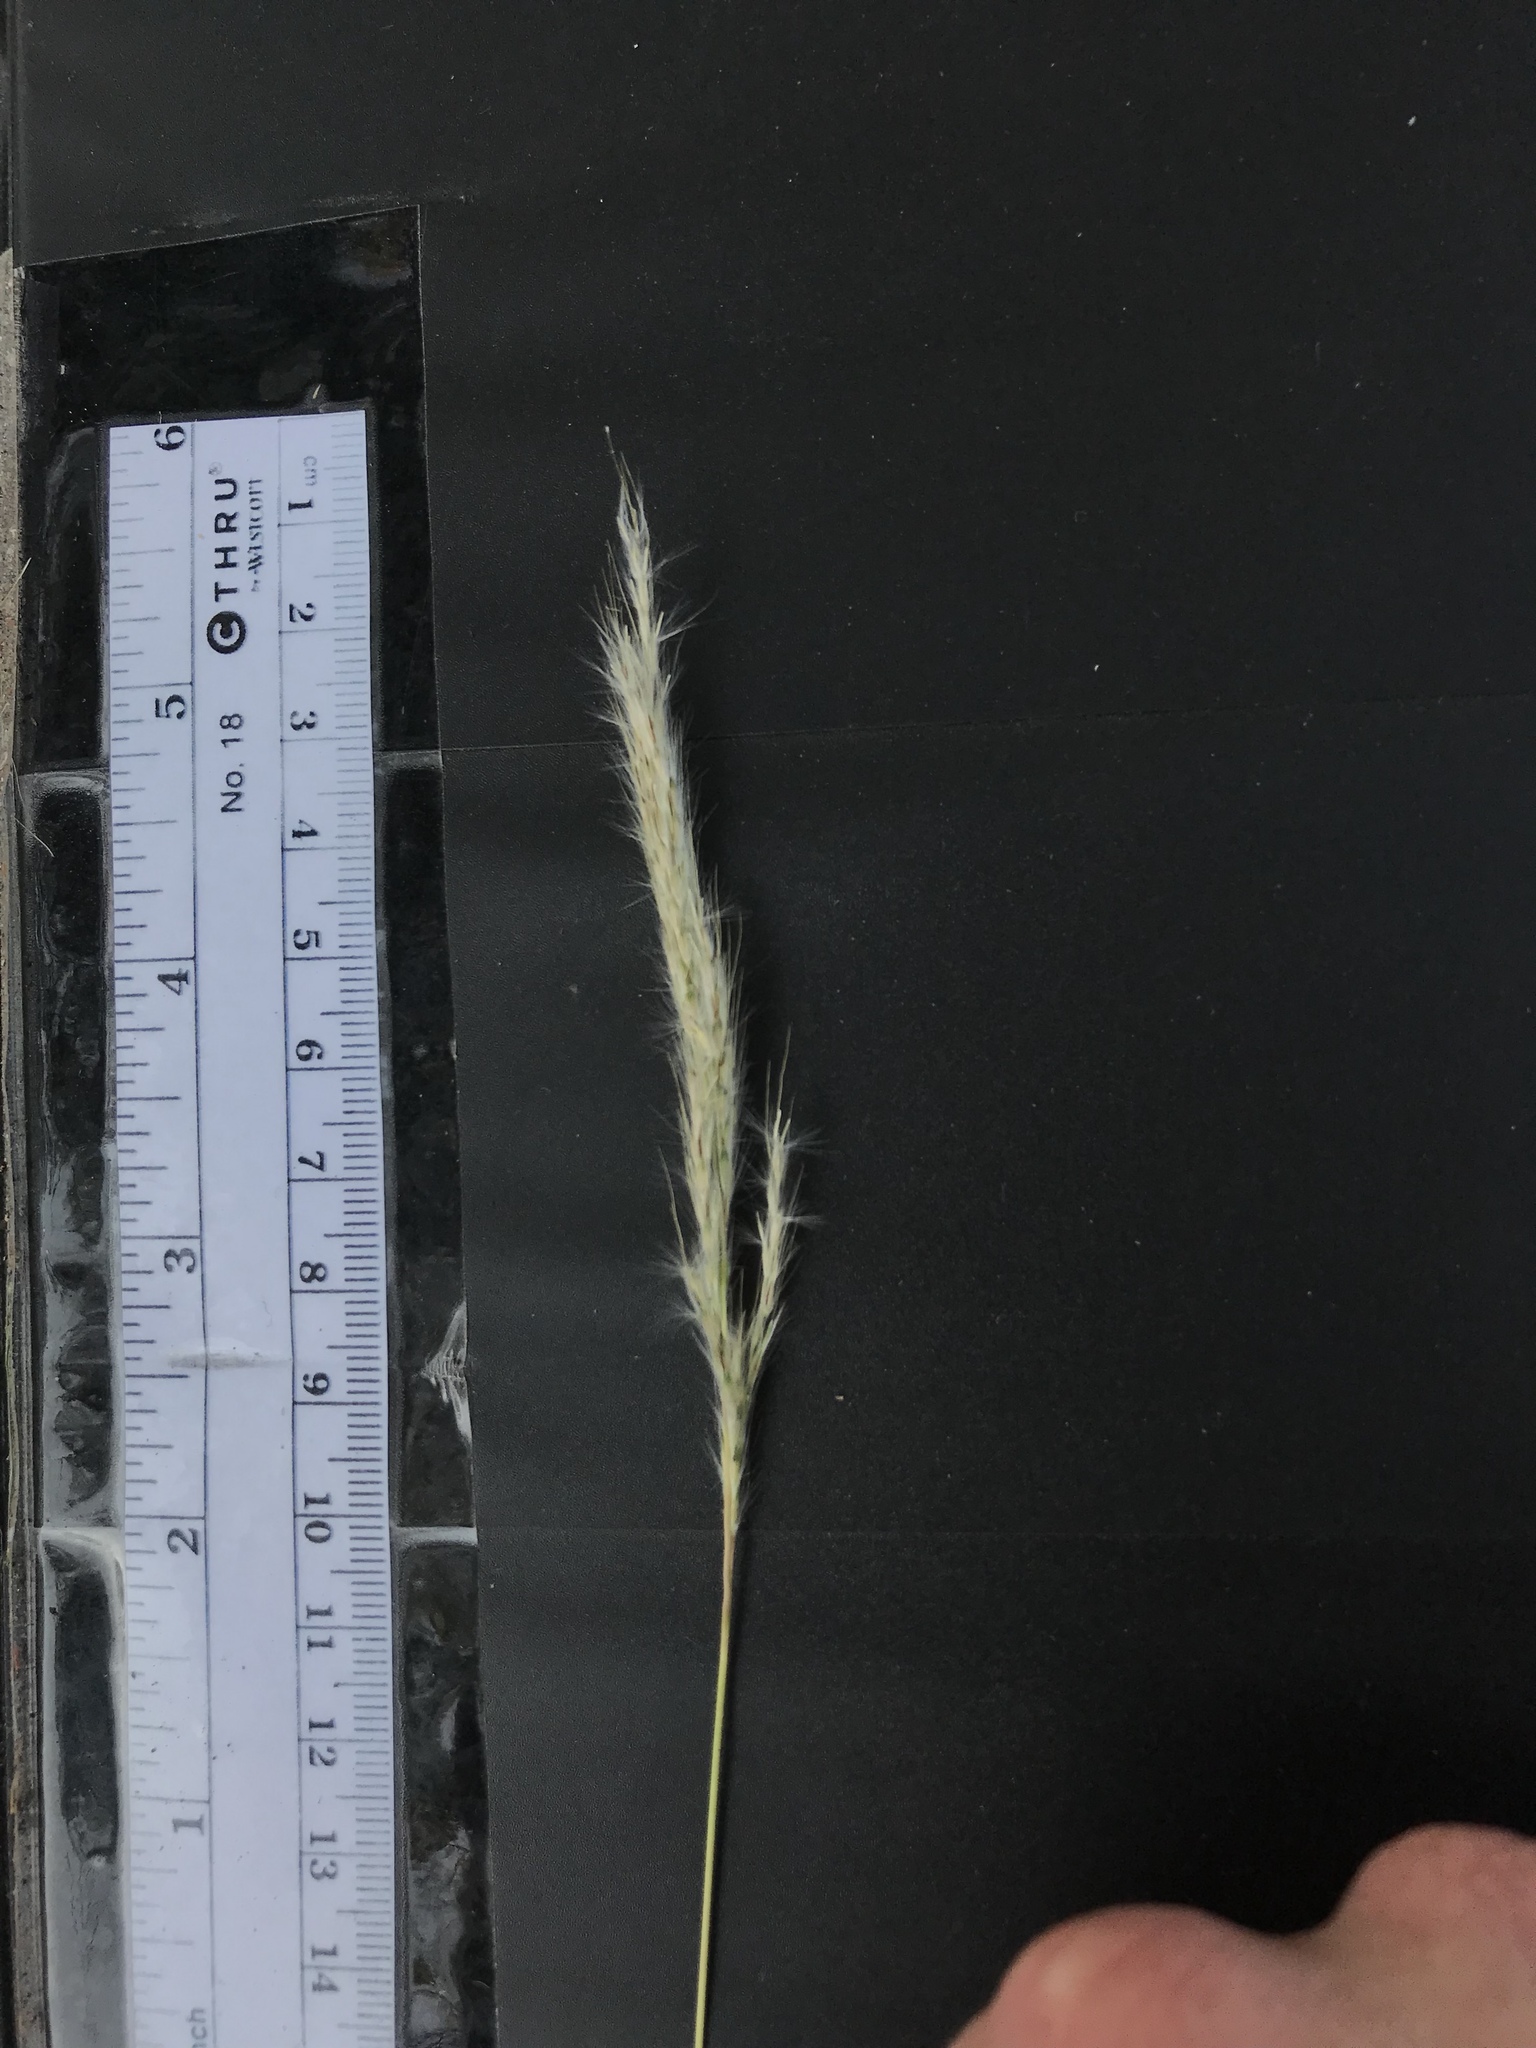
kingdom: Plantae
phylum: Tracheophyta
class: Liliopsida
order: Poales
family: Poaceae
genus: Bothriochloa
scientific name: Bothriochloa torreyana
